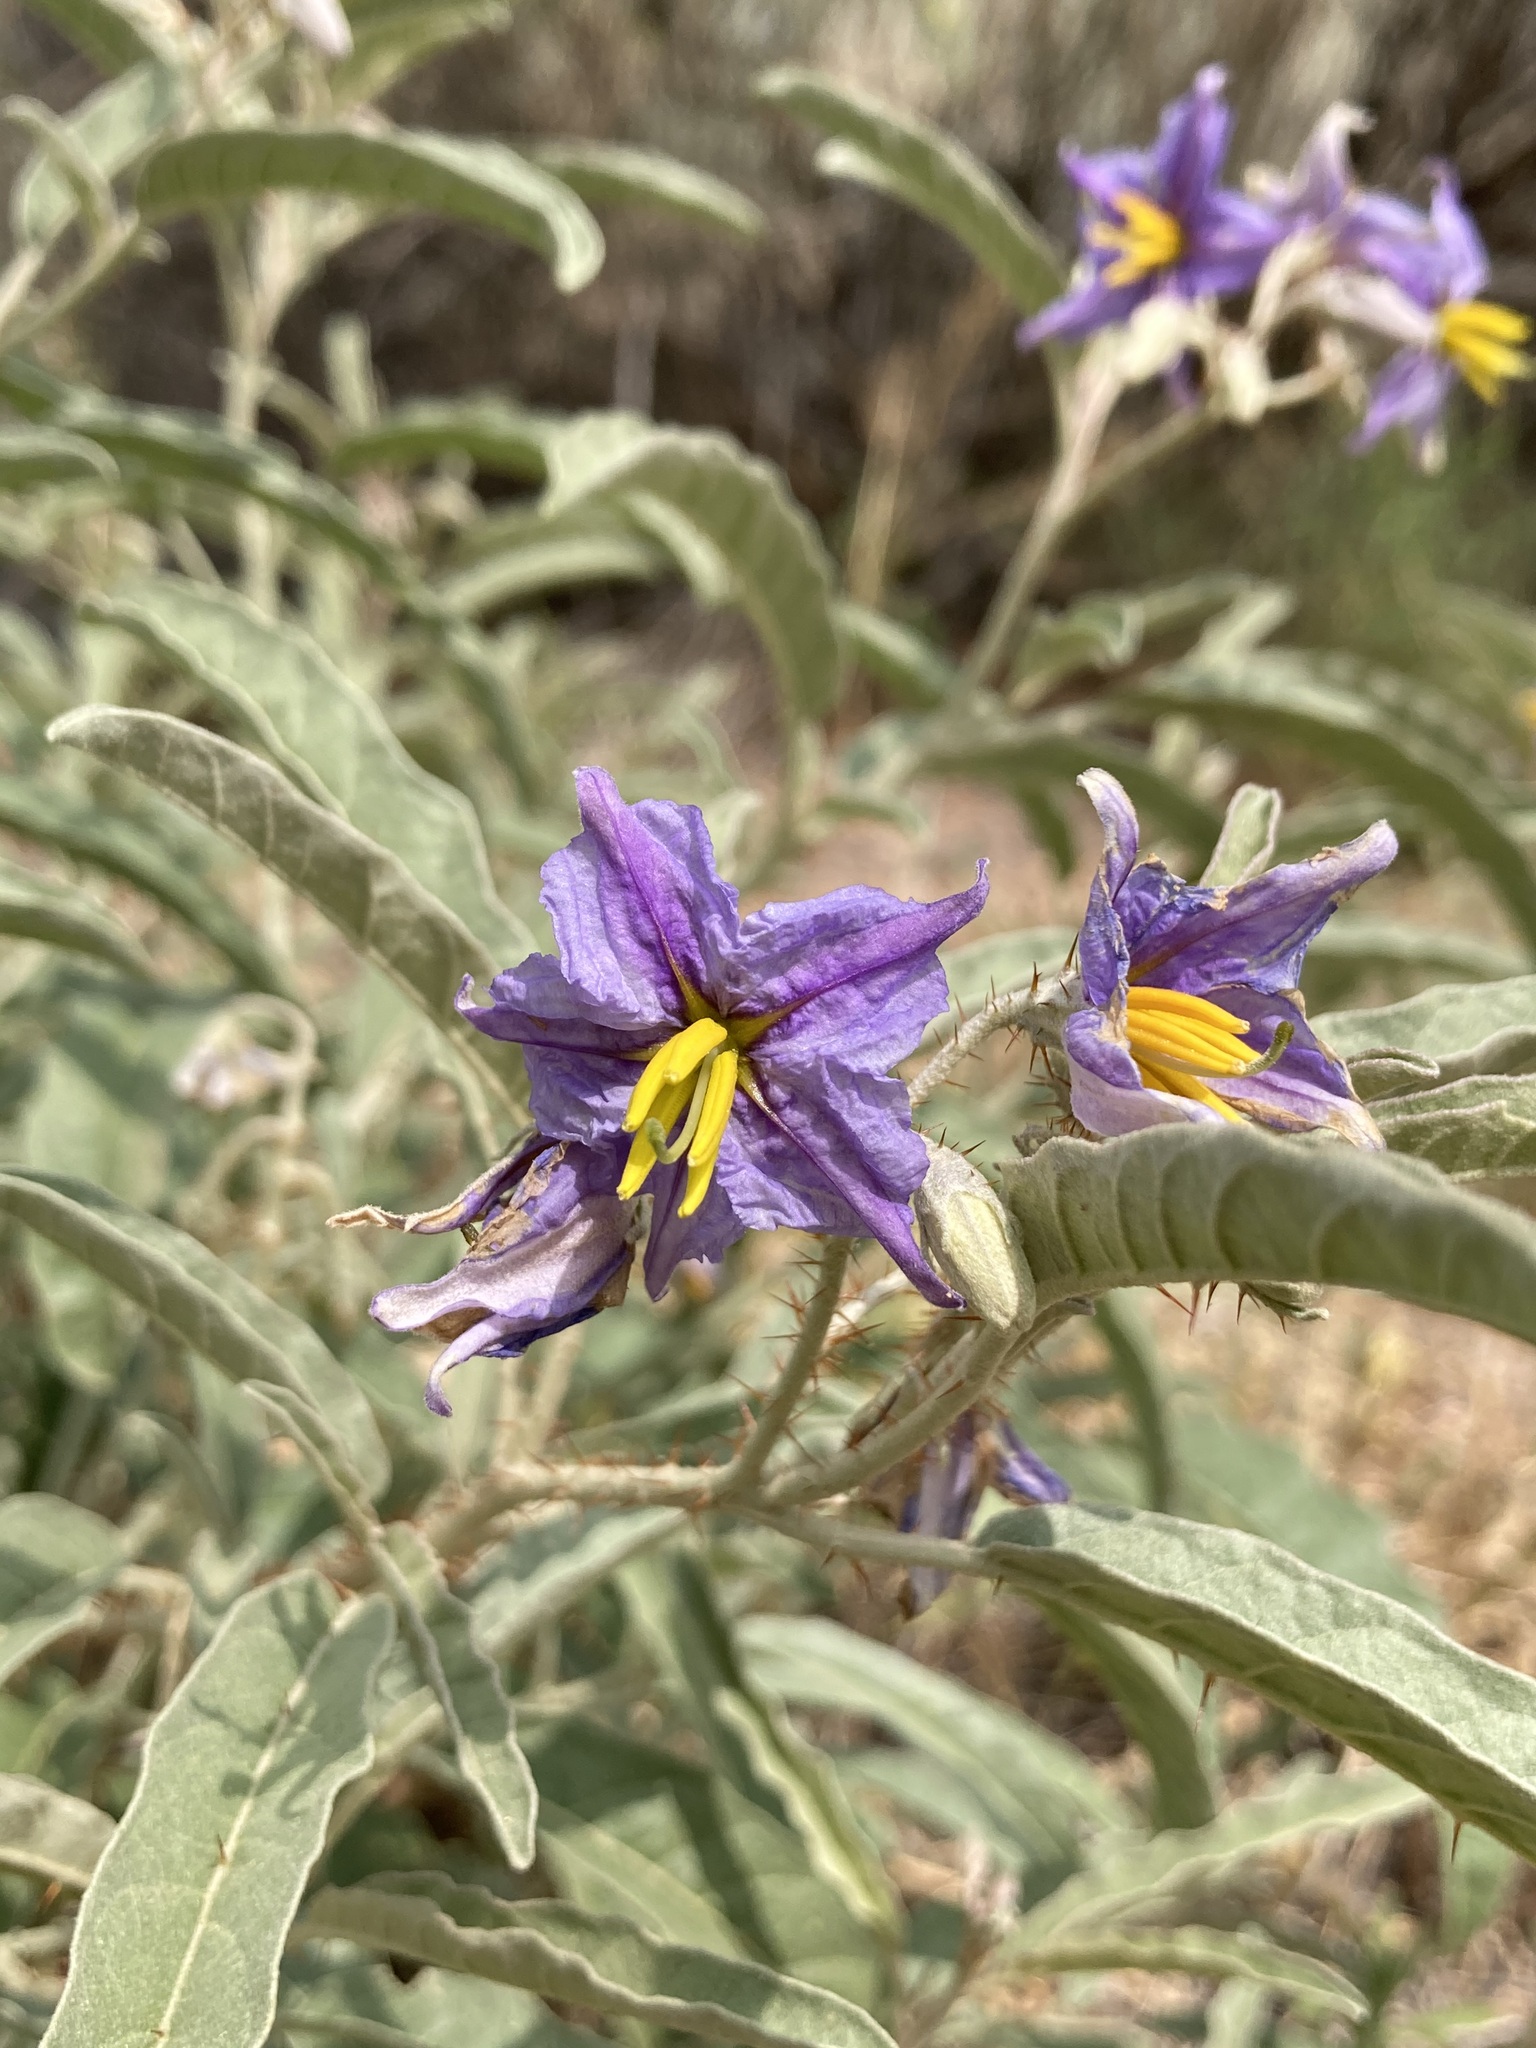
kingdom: Plantae
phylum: Tracheophyta
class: Magnoliopsida
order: Solanales
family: Solanaceae
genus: Solanum
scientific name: Solanum elaeagnifolium
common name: Silverleaf nightshade
